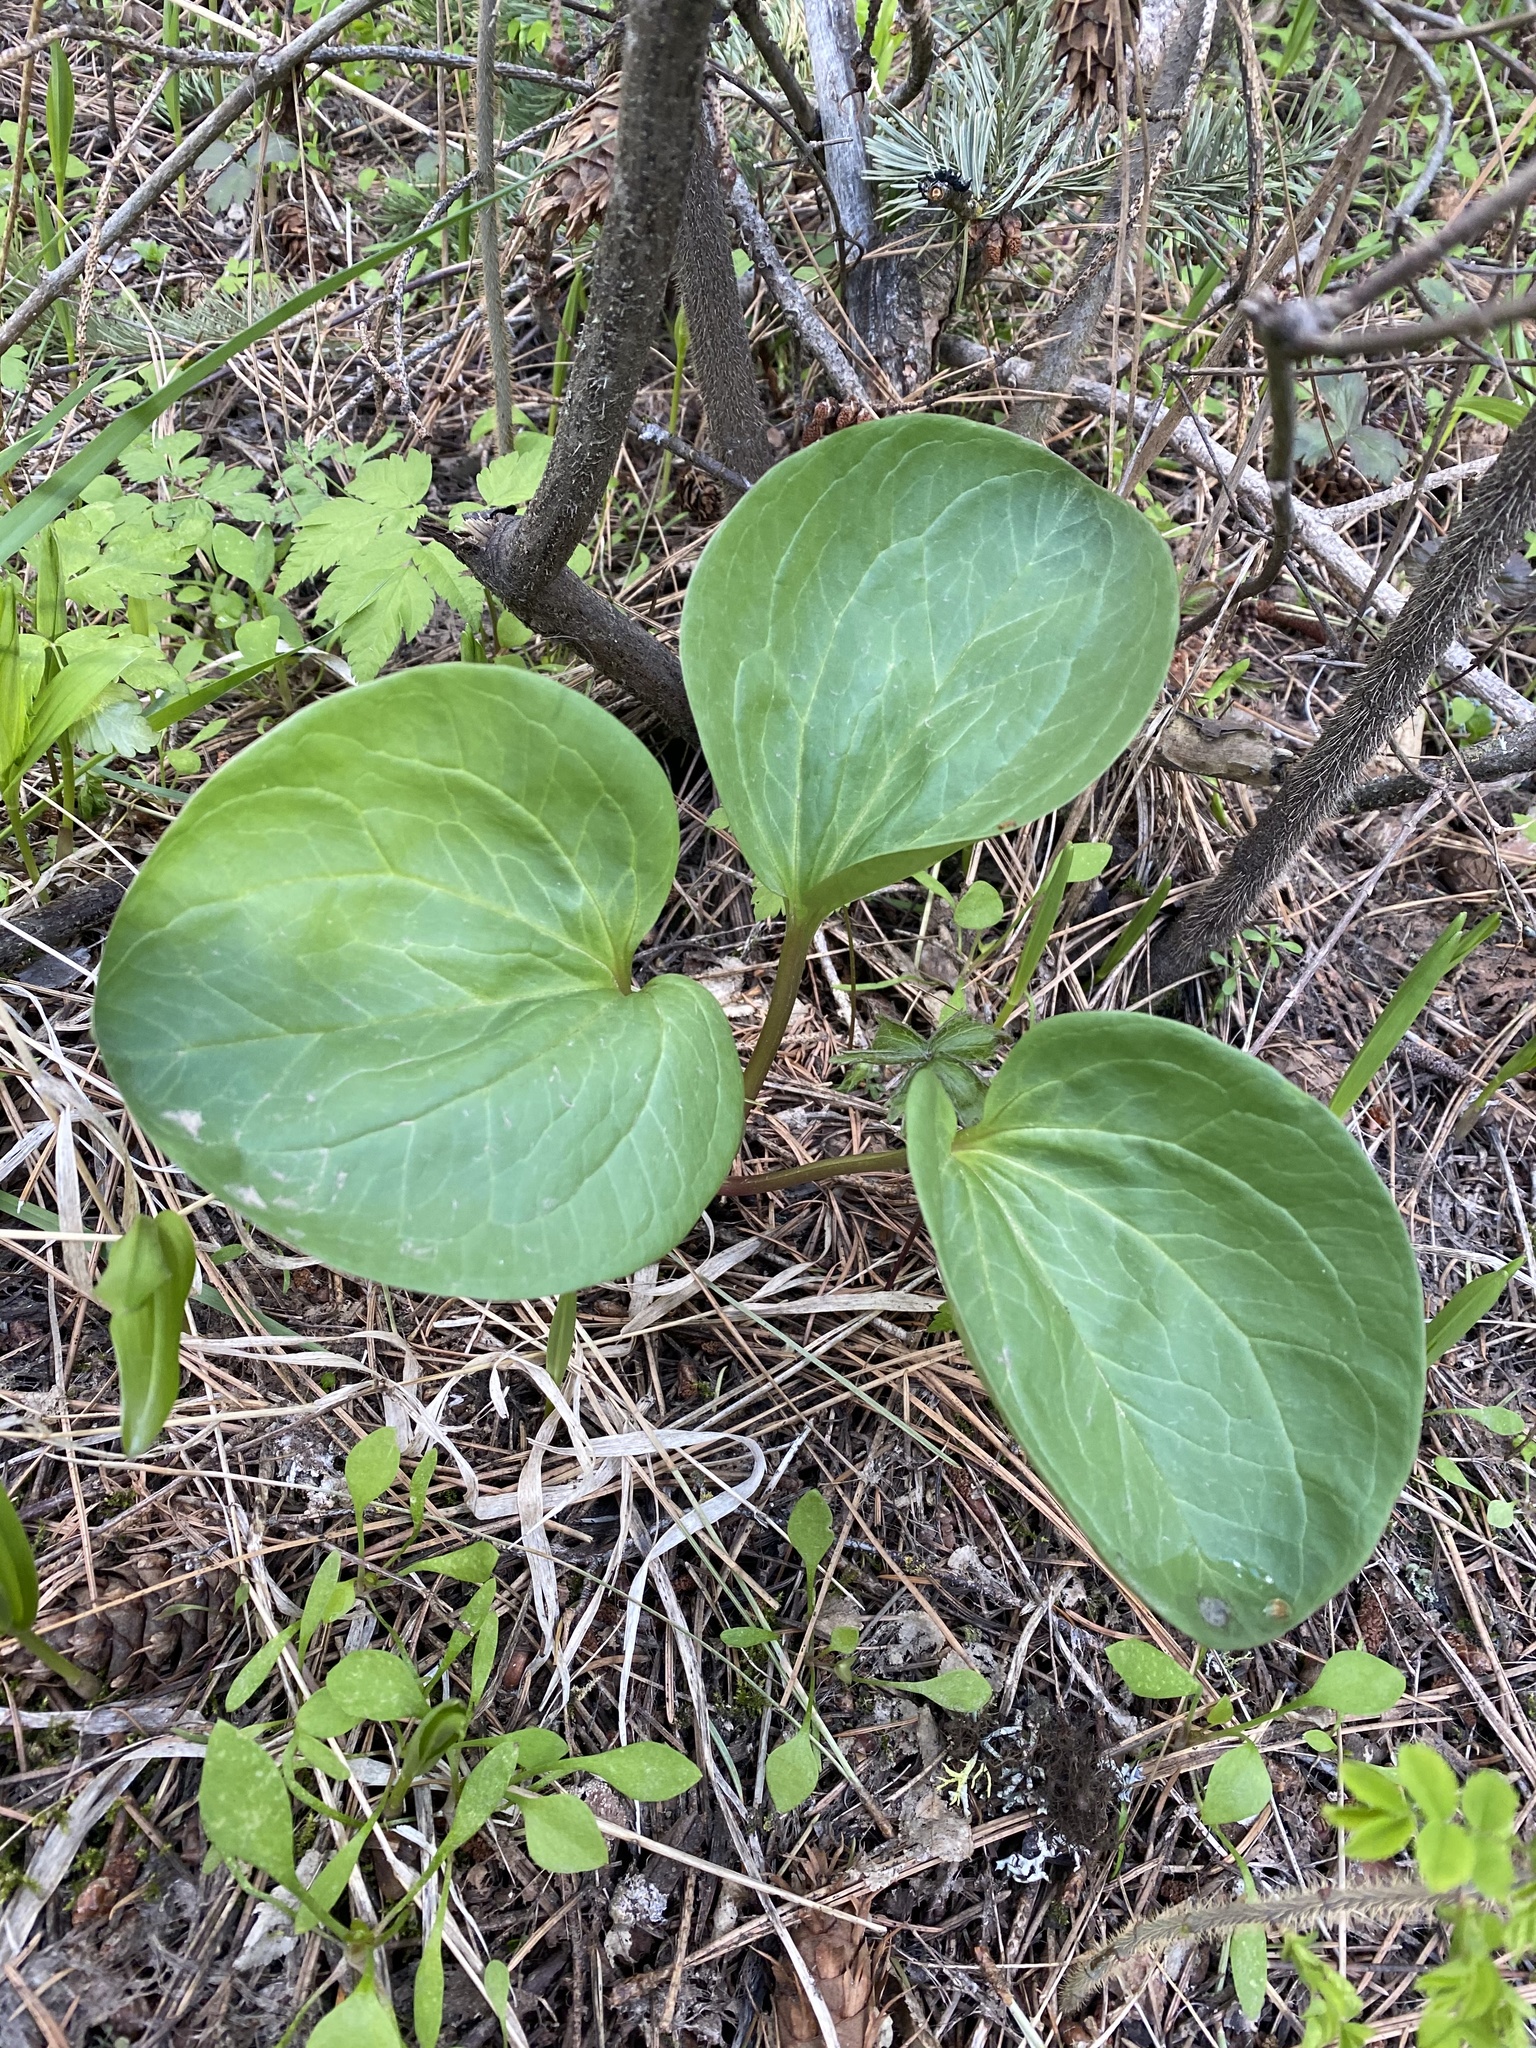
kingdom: Plantae
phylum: Tracheophyta
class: Liliopsida
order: Liliales
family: Melanthiaceae
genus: Trillium
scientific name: Trillium petiolatum
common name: Idaho trillium
